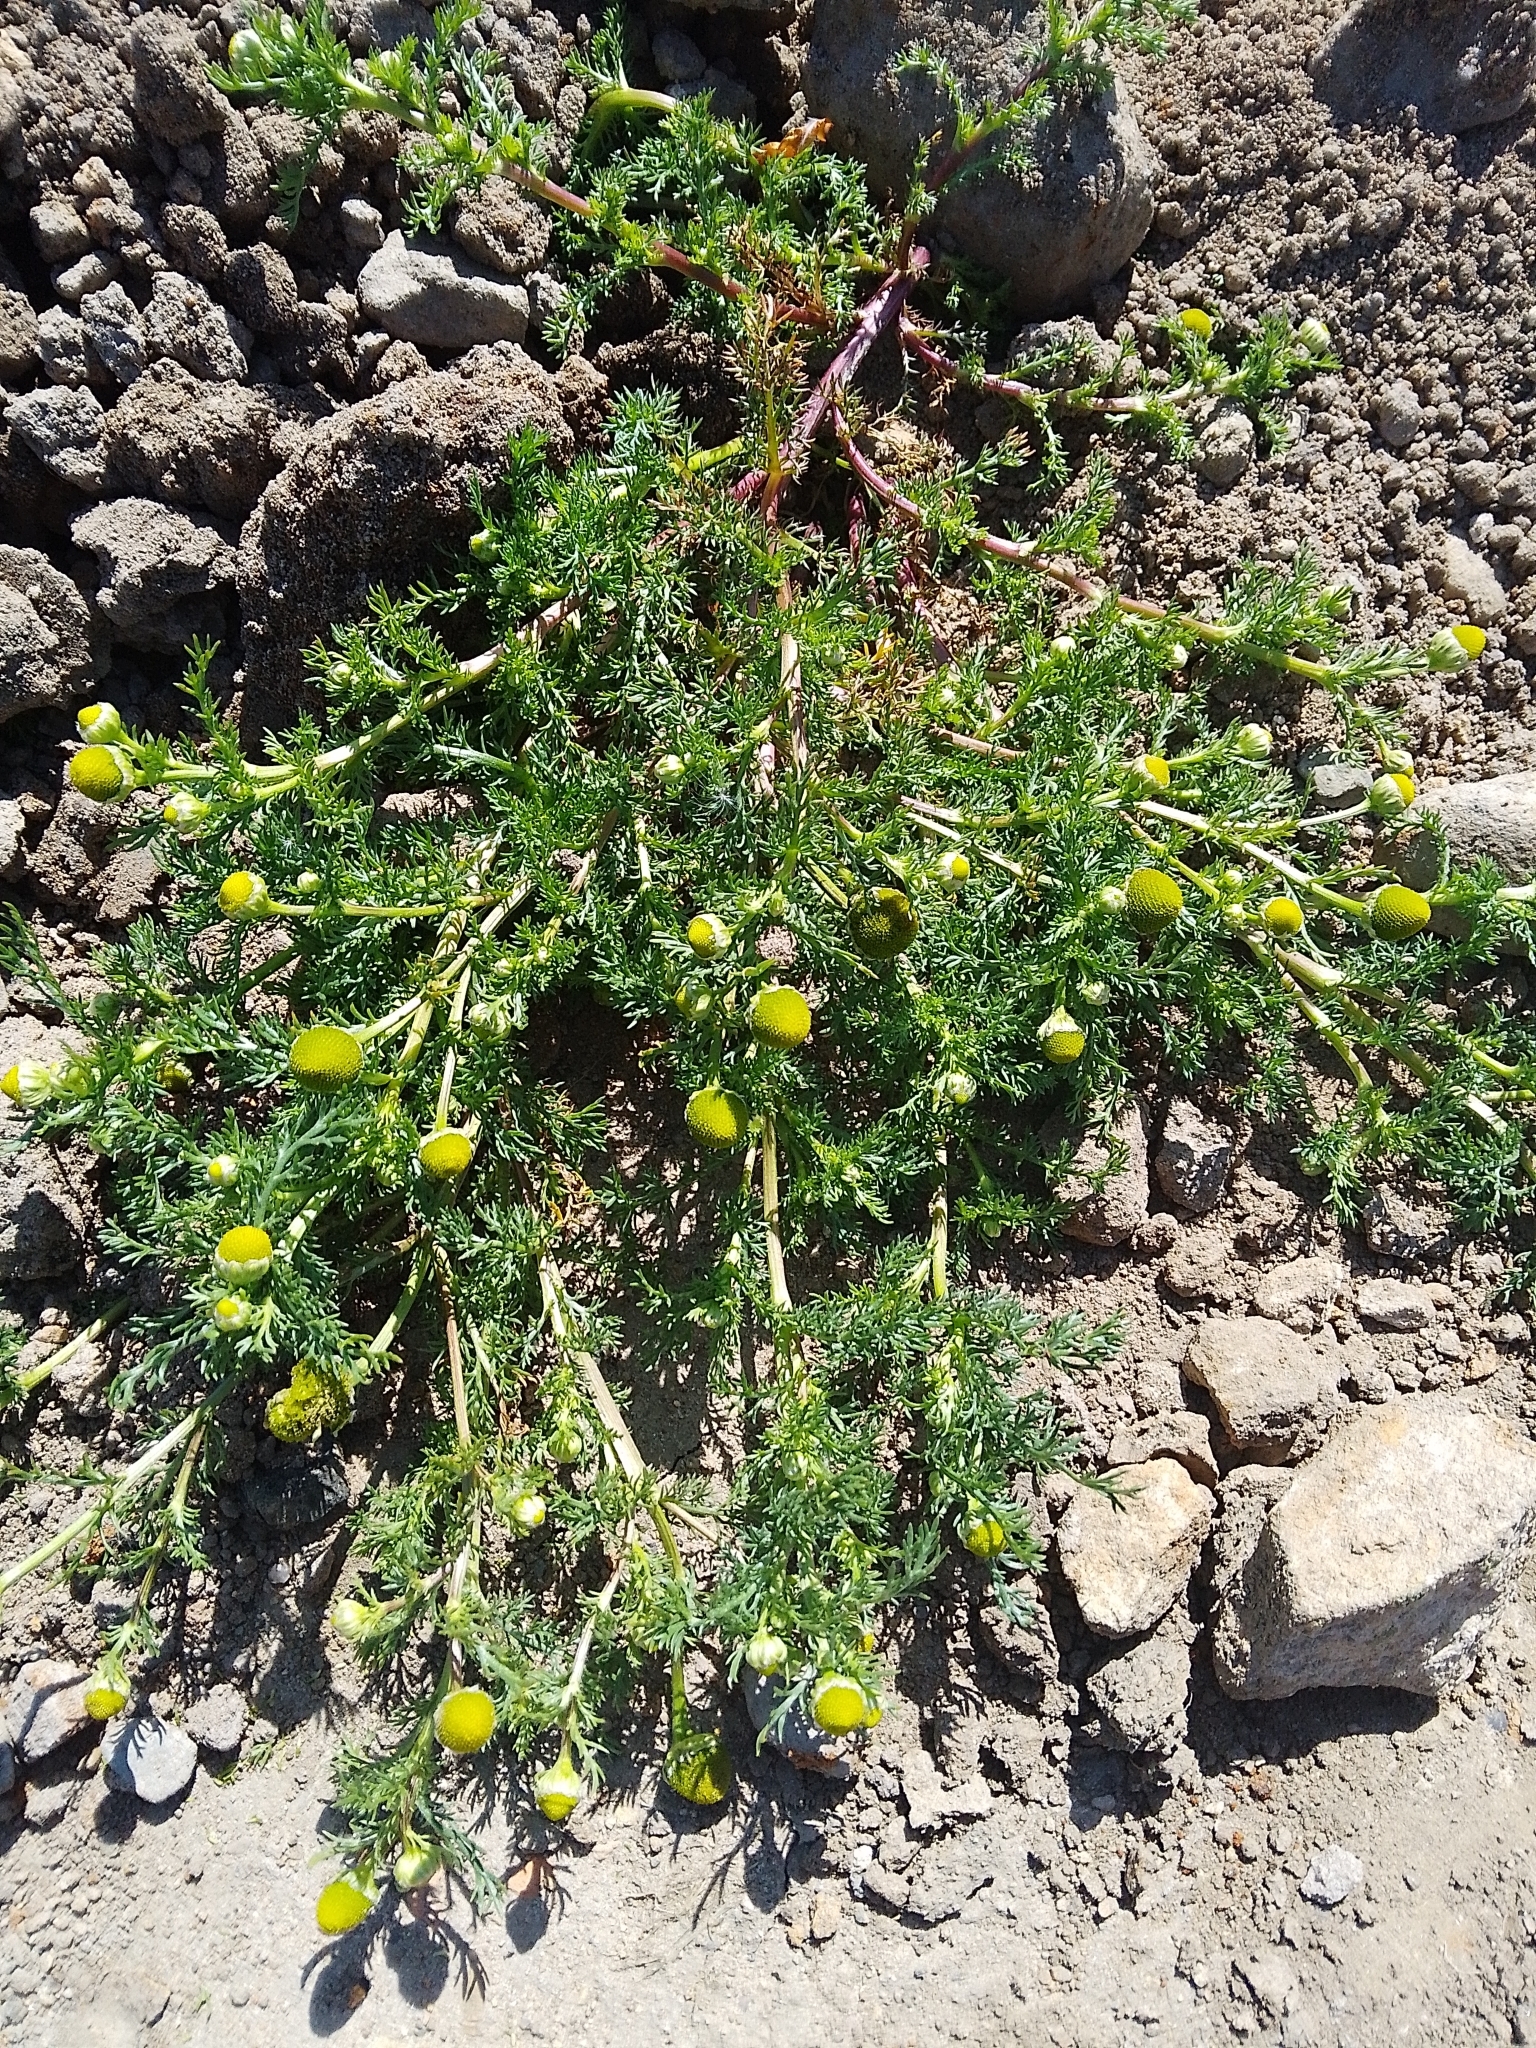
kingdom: Plantae
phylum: Tracheophyta
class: Magnoliopsida
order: Asterales
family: Asteraceae
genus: Matricaria
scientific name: Matricaria discoidea
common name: Disc mayweed
